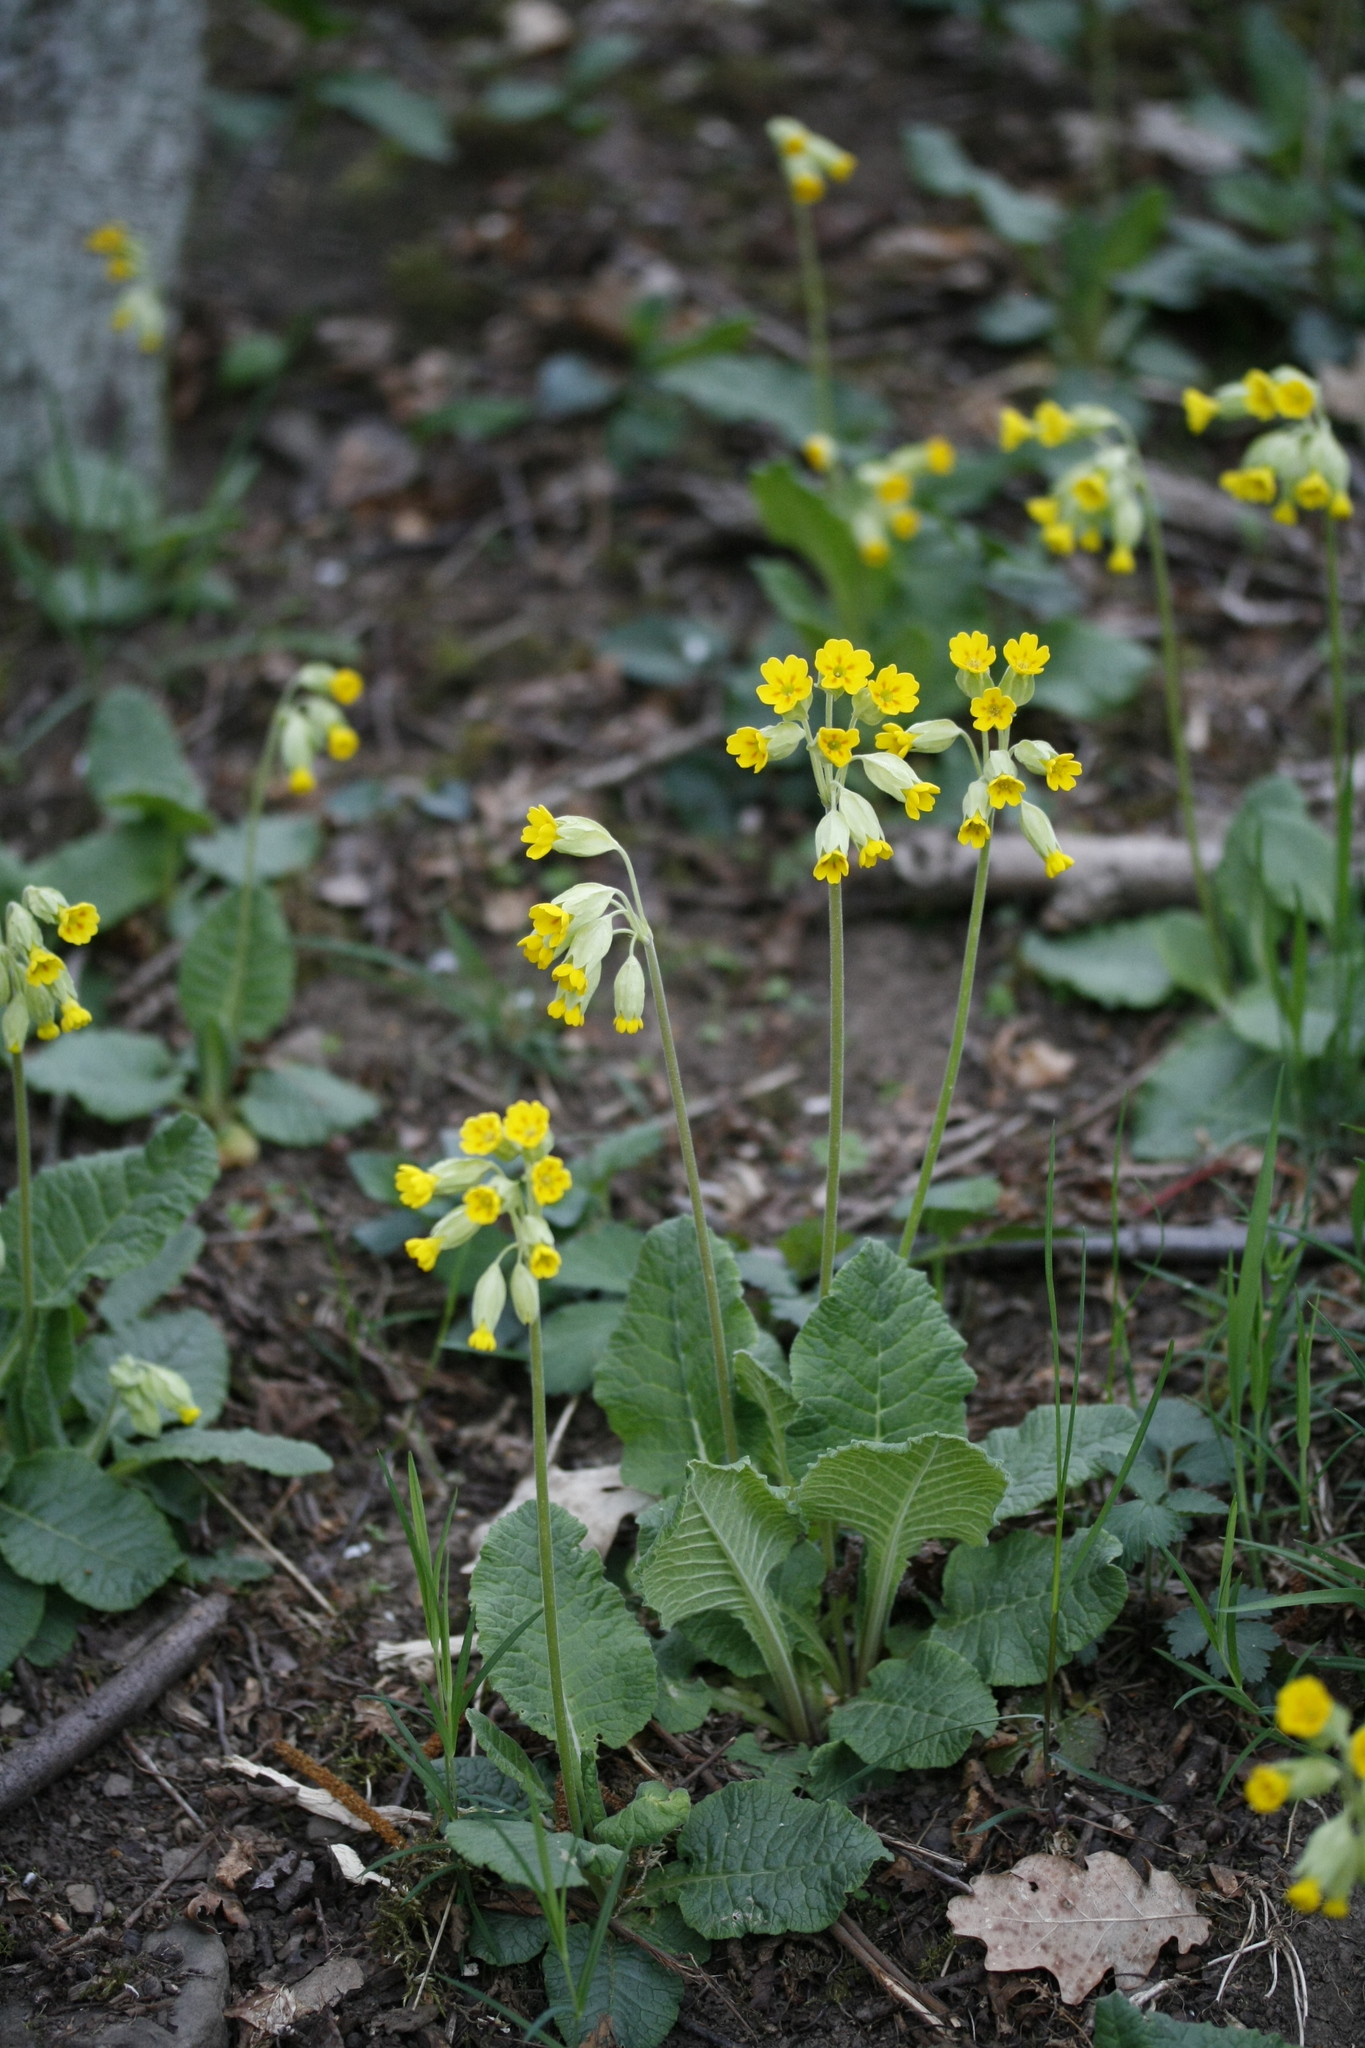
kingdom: Plantae
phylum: Tracheophyta
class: Magnoliopsida
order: Ericales
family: Primulaceae
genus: Primula
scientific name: Primula veris
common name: Cowslip
